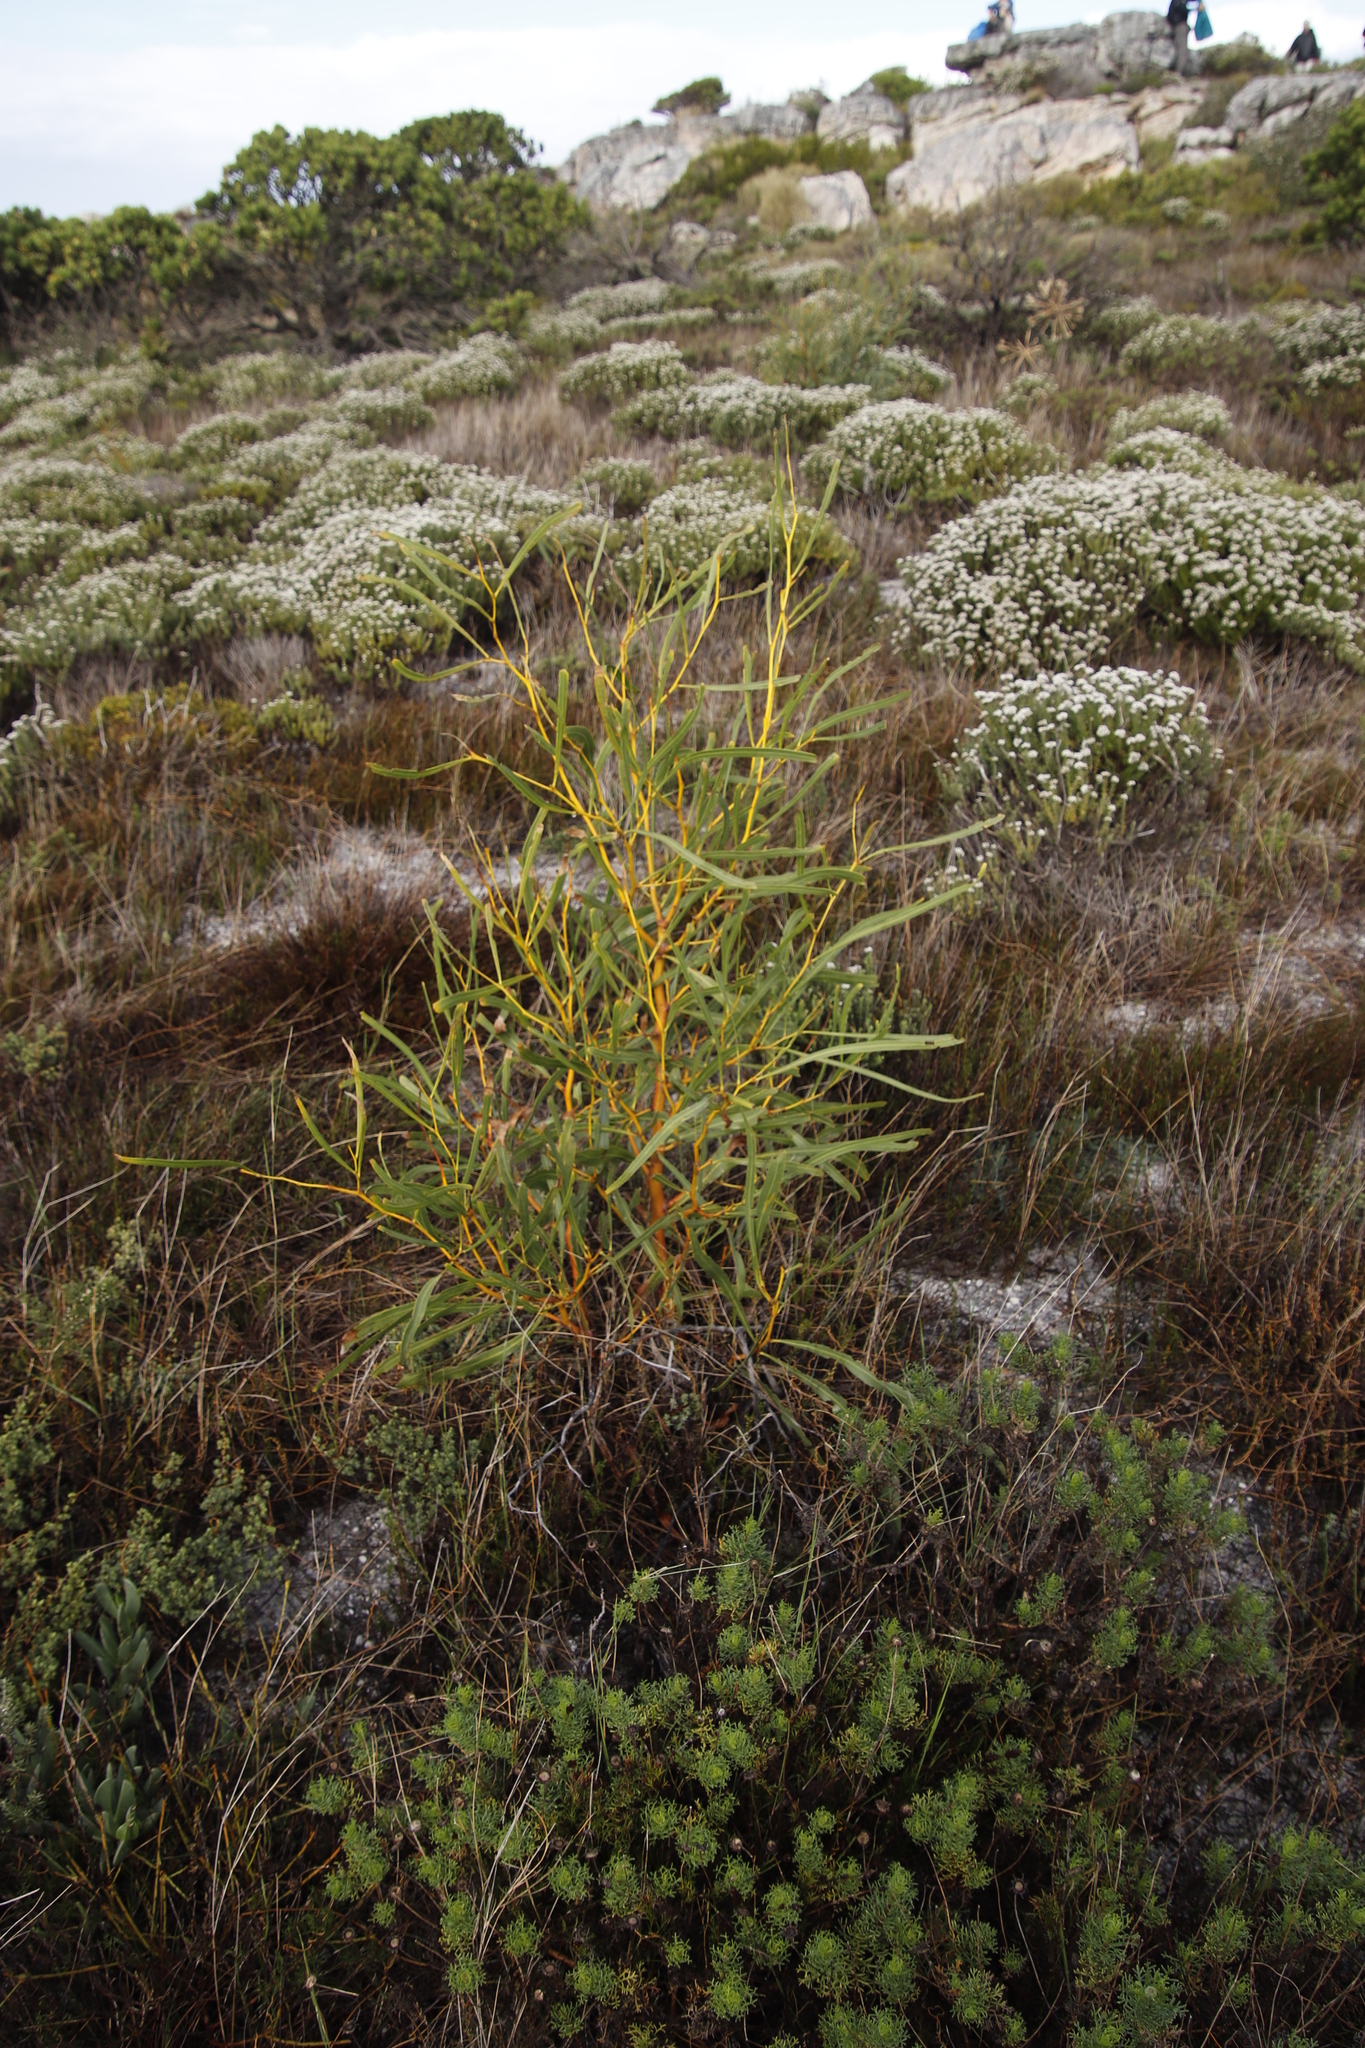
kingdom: Plantae
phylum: Tracheophyta
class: Magnoliopsida
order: Fabales
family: Fabaceae
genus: Acacia
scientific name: Acacia saligna
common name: Orange wattle
